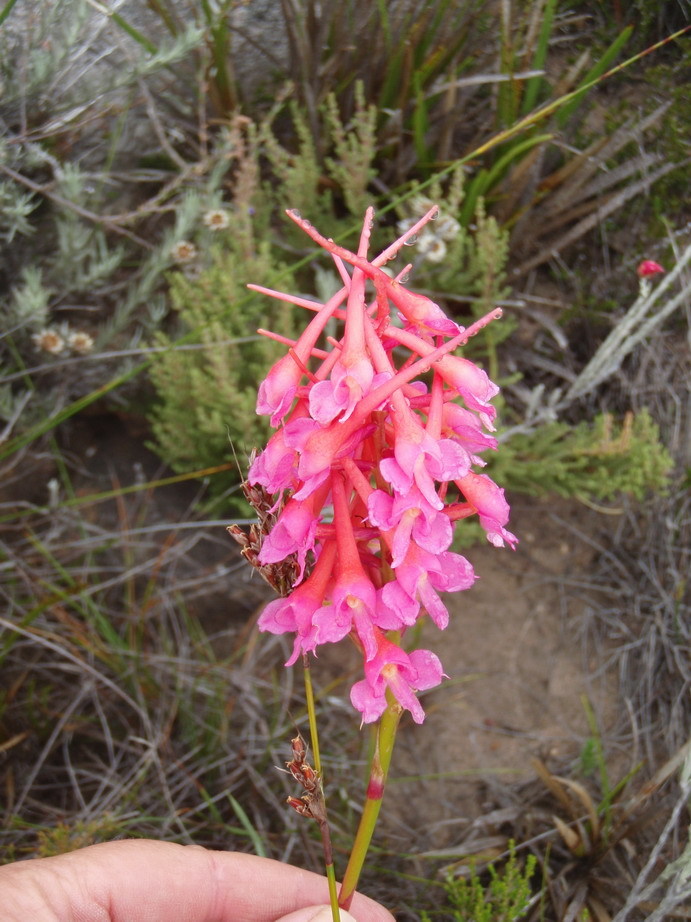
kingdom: Plantae
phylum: Tracheophyta
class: Liliopsida
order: Asparagales
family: Orchidaceae
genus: Disa
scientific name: Disa porrecta
